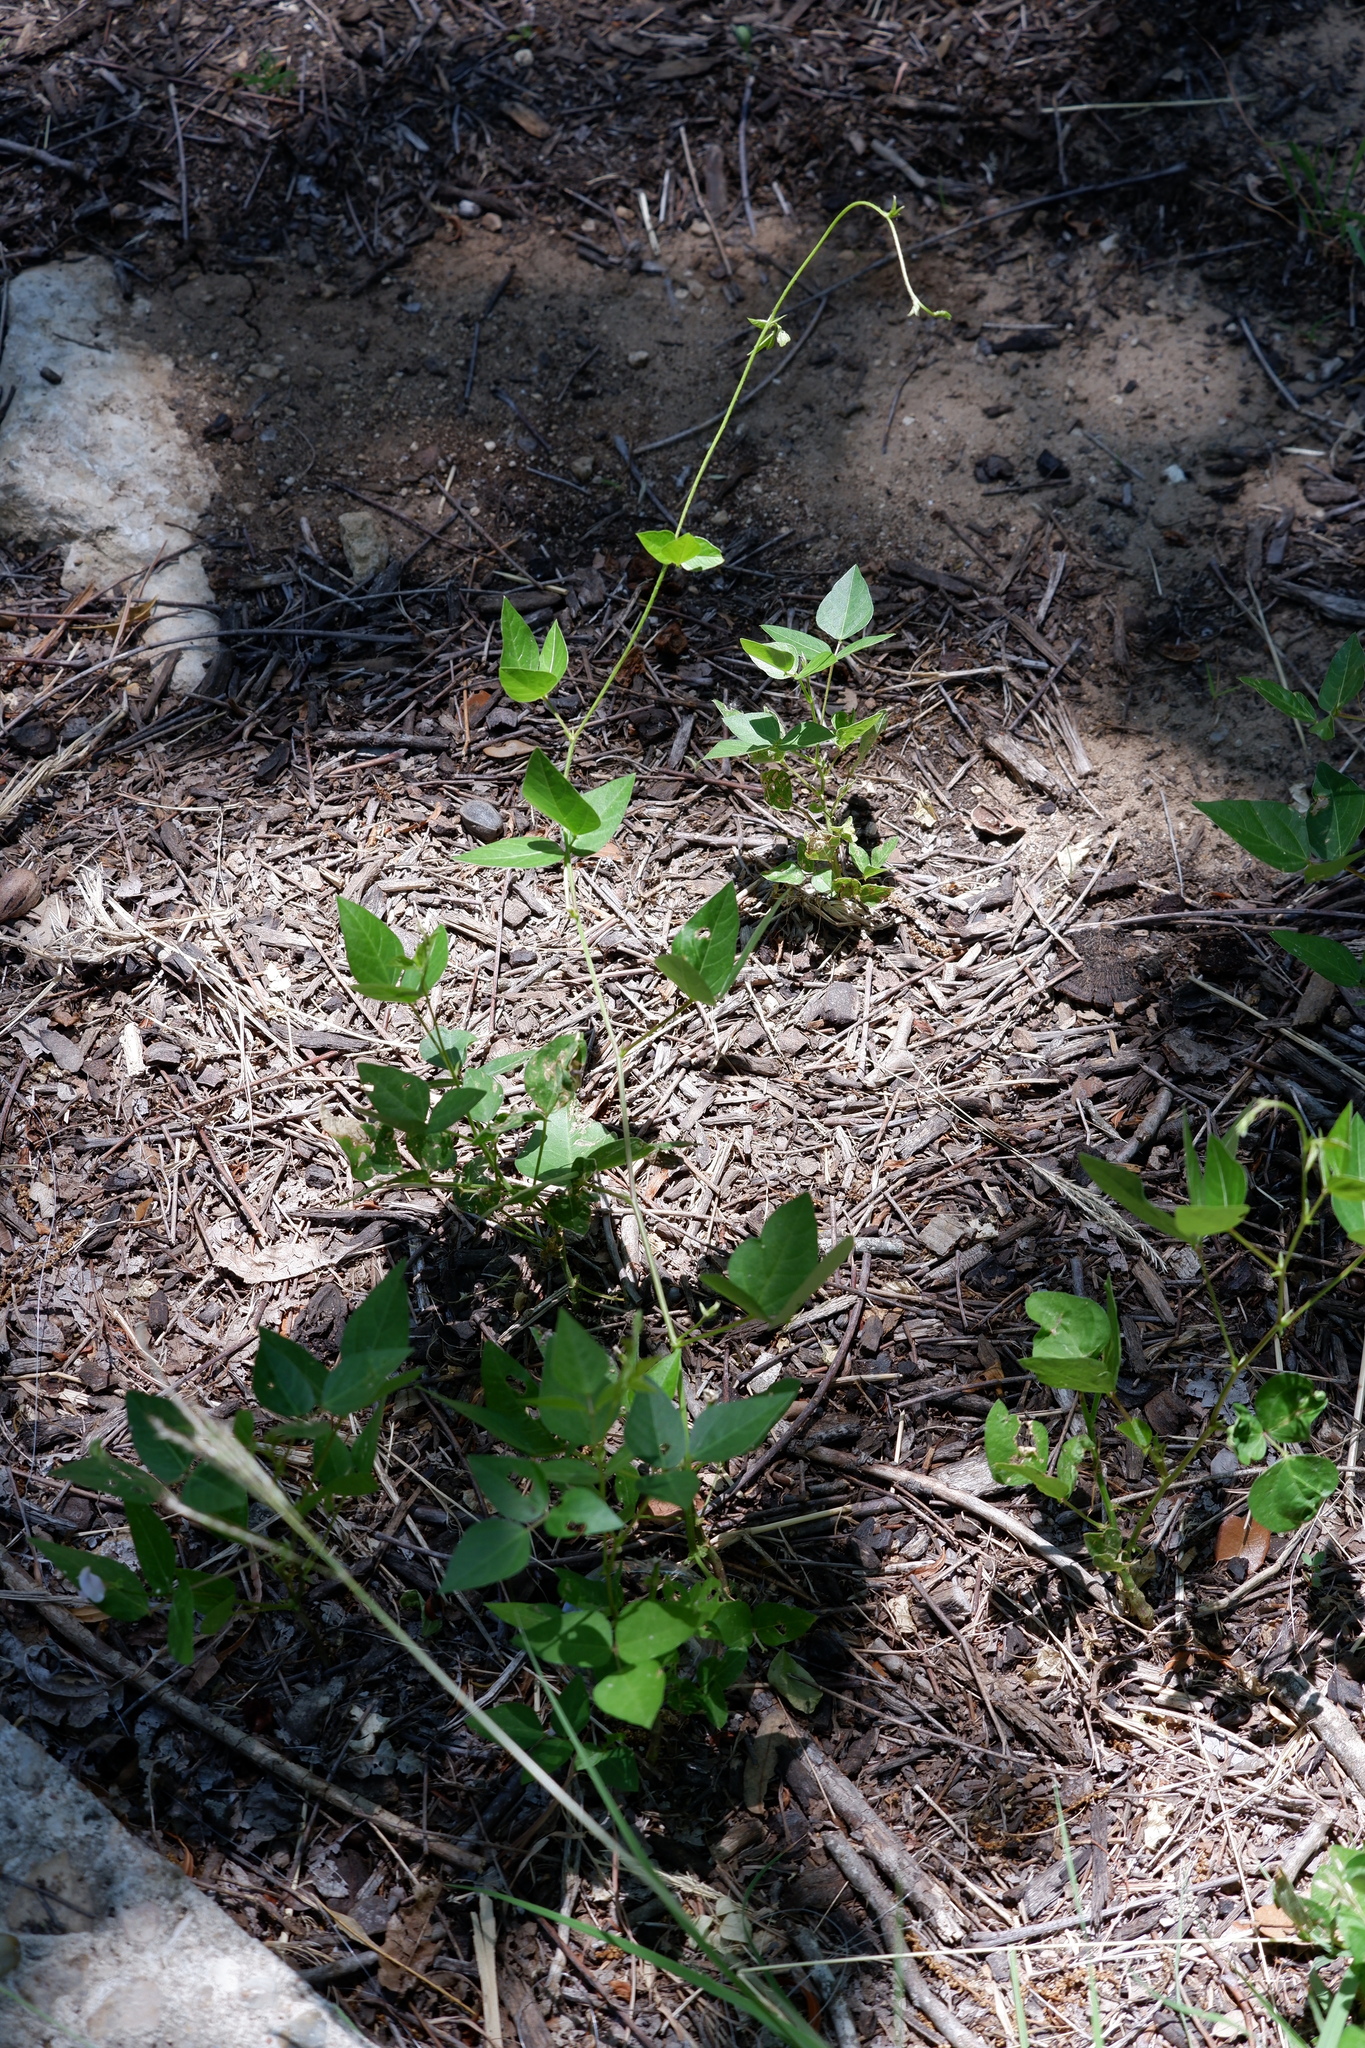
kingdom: Plantae
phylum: Tracheophyta
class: Magnoliopsida
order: Fabales
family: Fabaceae
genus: Strophostyles
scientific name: Strophostyles helvola
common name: Trailing wild bean
